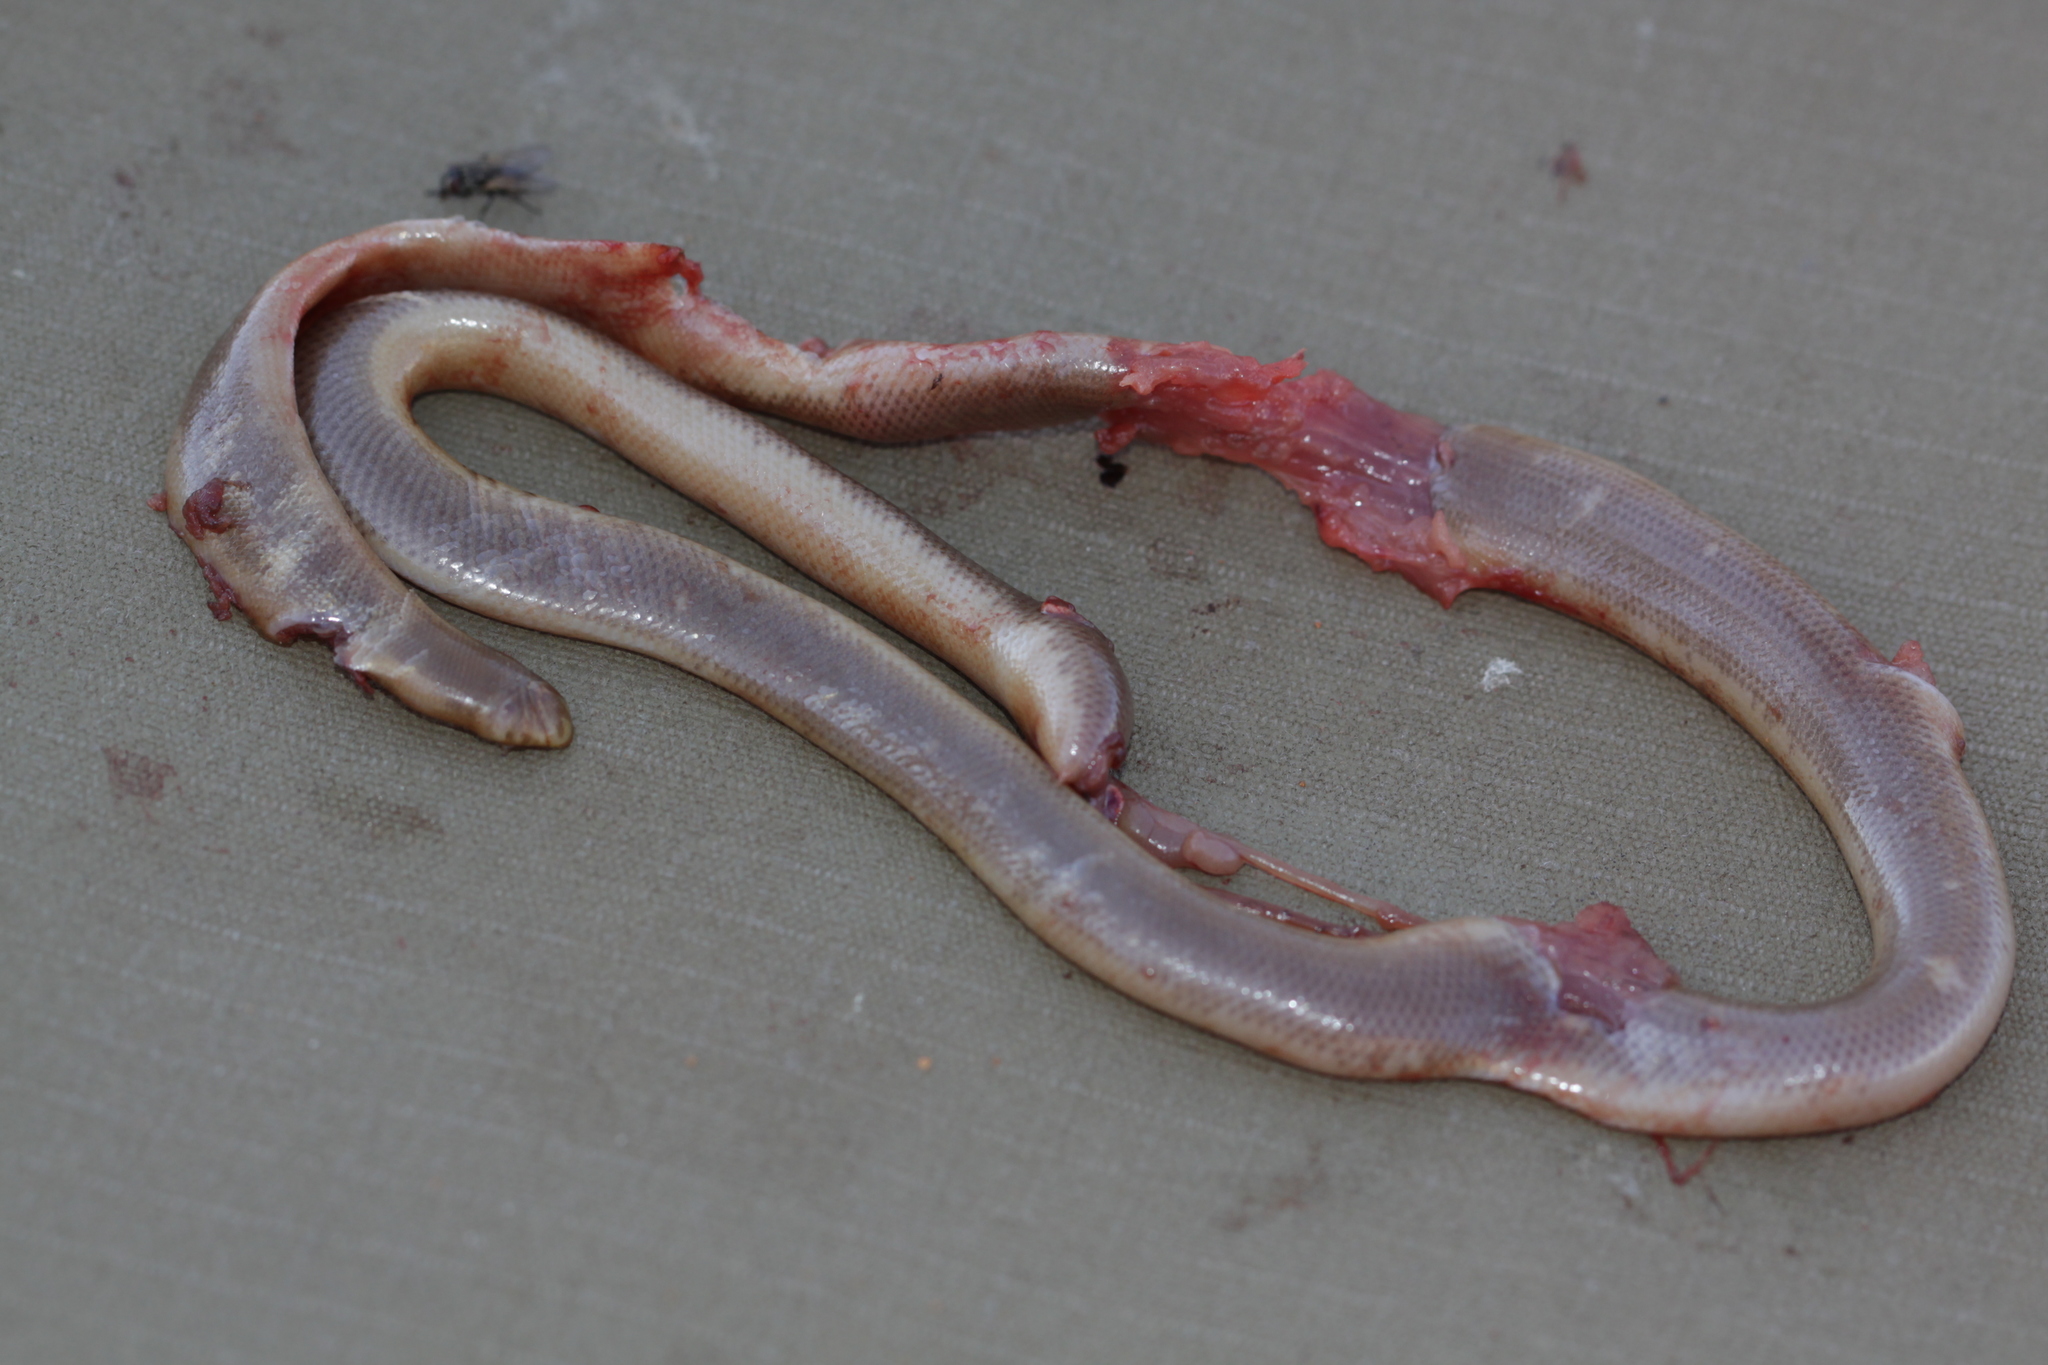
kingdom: Animalia
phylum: Chordata
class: Squamata
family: Typhlopidae
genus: Rhinotyphlops
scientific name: Rhinotyphlops lalandei
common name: Delalande's beaked blind snake
